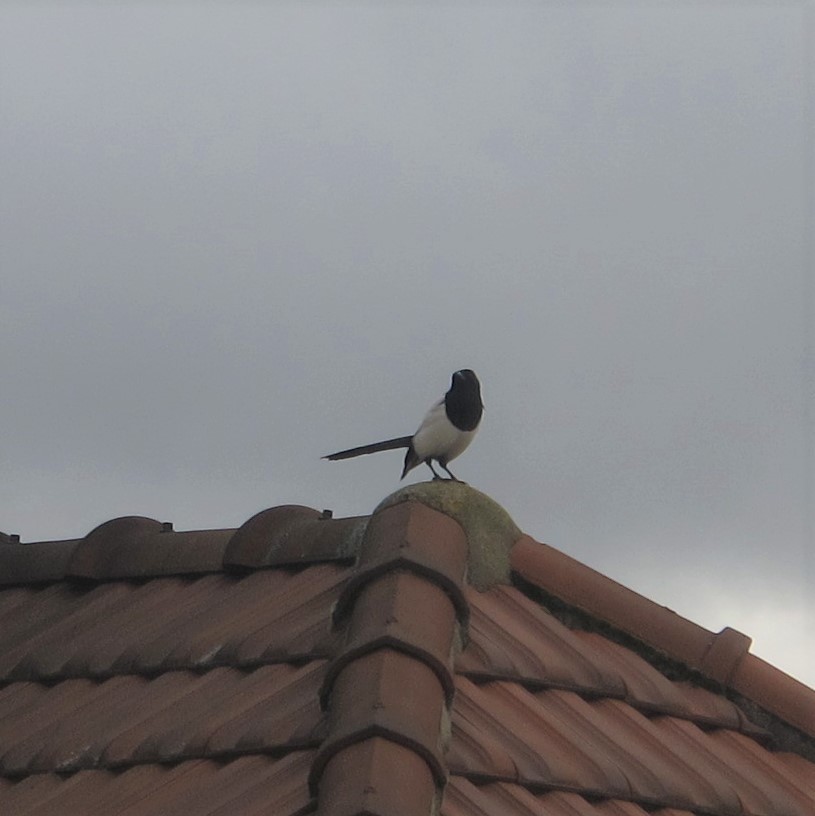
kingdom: Animalia
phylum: Chordata
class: Aves
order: Passeriformes
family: Corvidae
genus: Pica
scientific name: Pica pica
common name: Eurasian magpie
